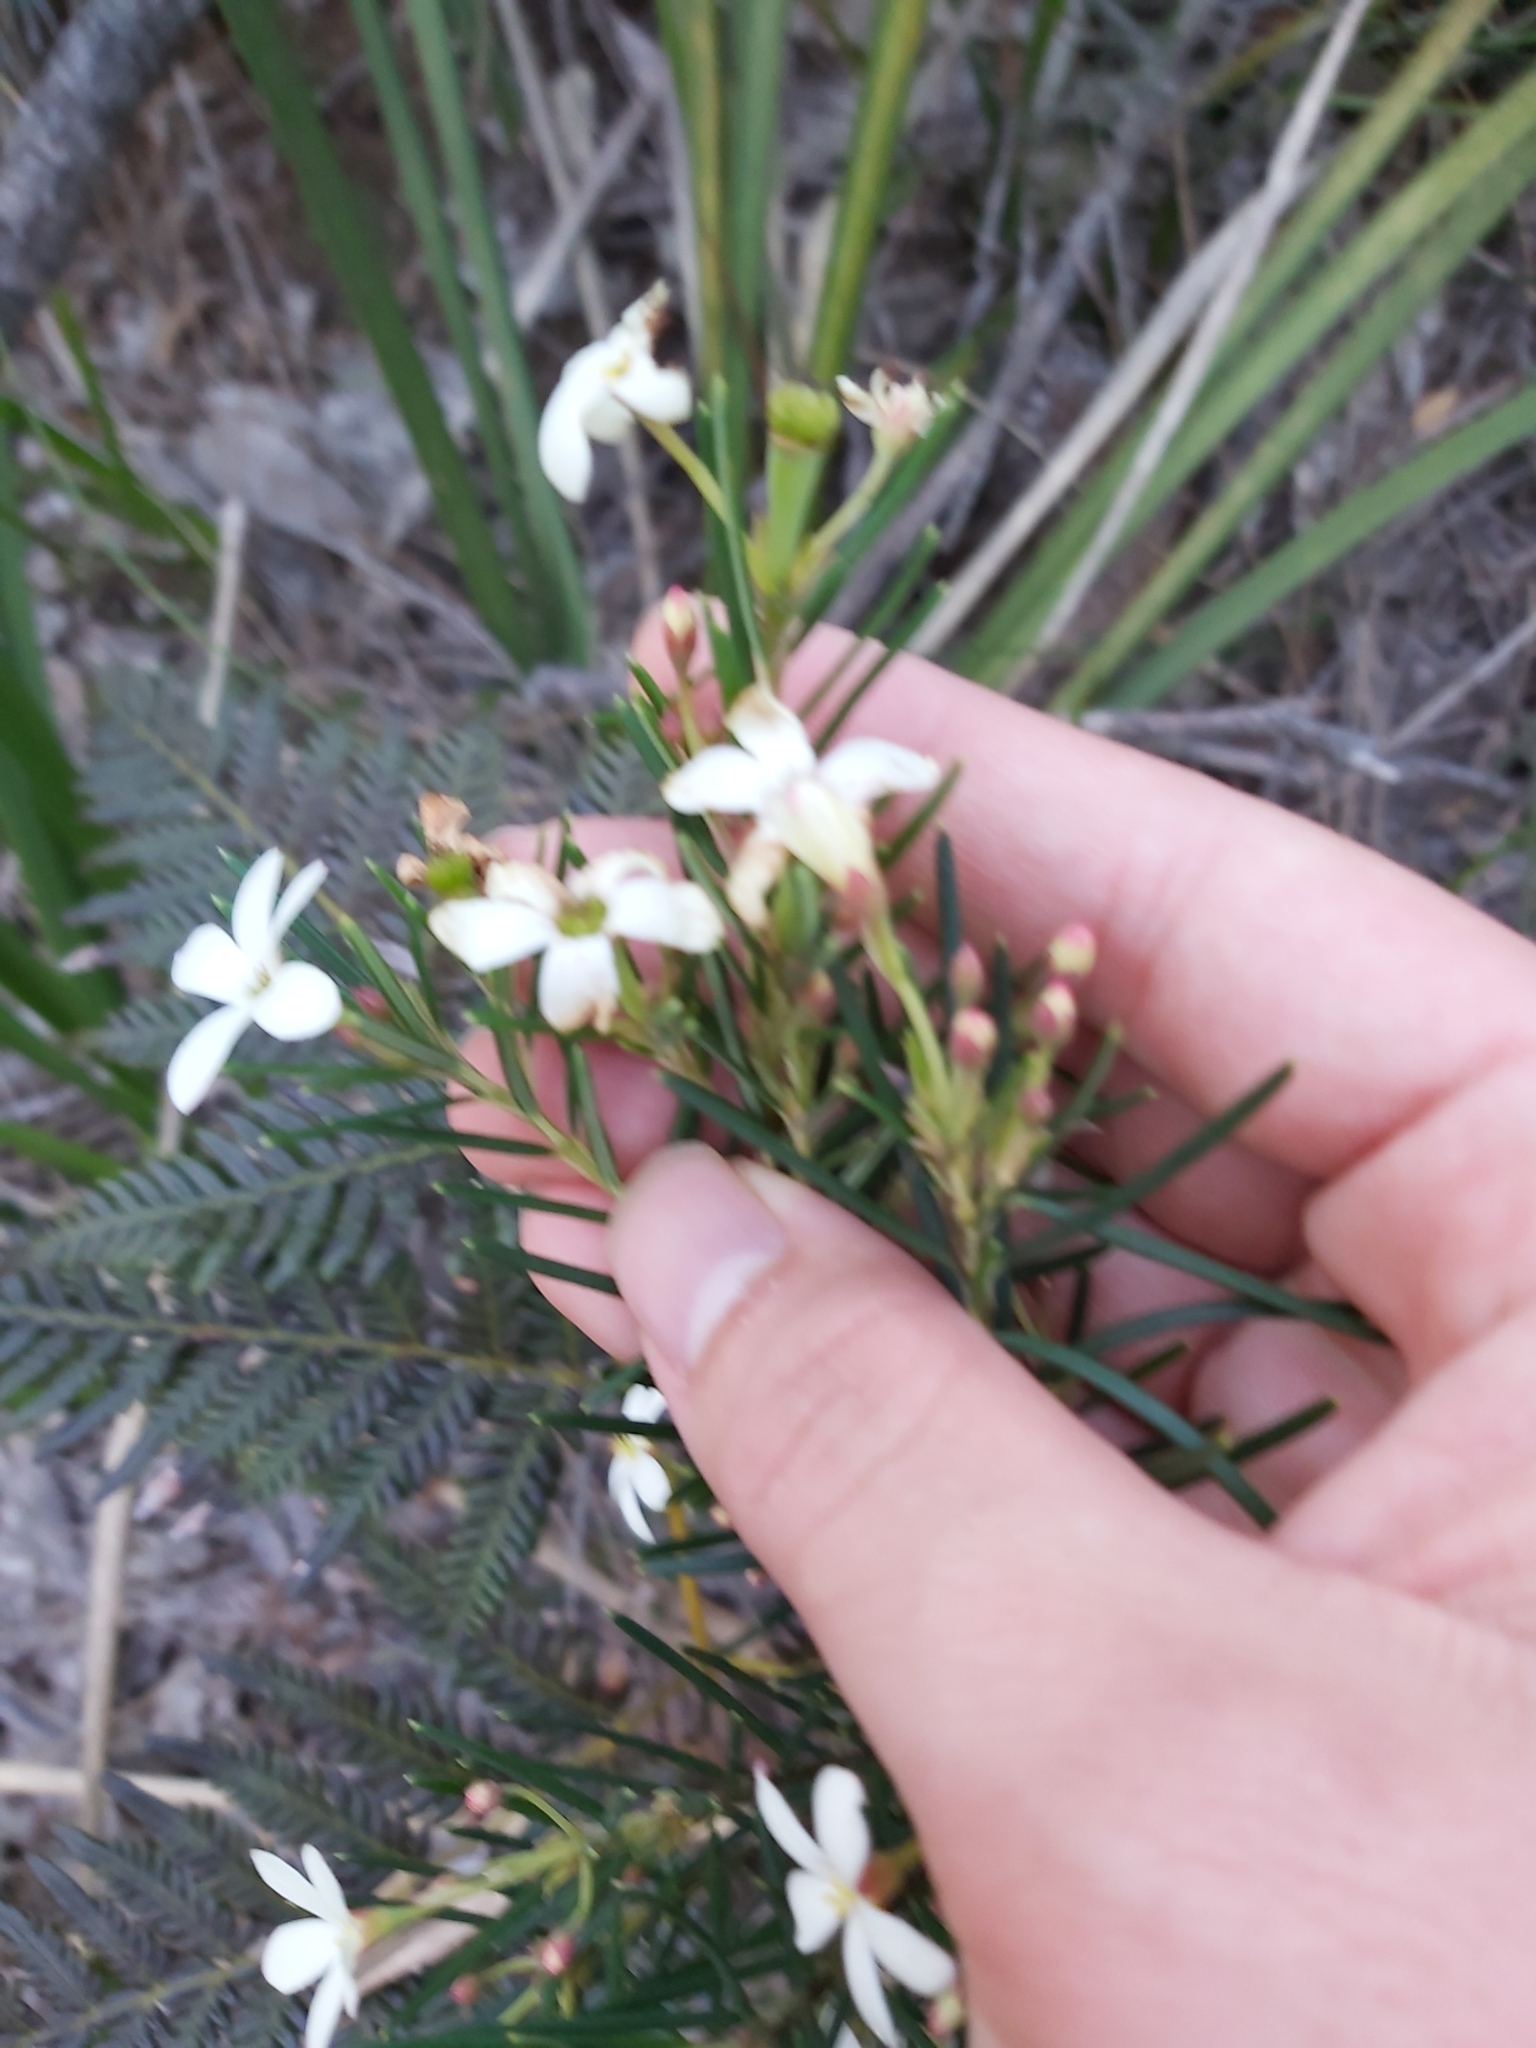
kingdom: Plantae
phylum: Tracheophyta
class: Magnoliopsida
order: Malpighiales
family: Euphorbiaceae
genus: Ricinocarpos
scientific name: Ricinocarpos pinifolius
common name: Weddingbush
